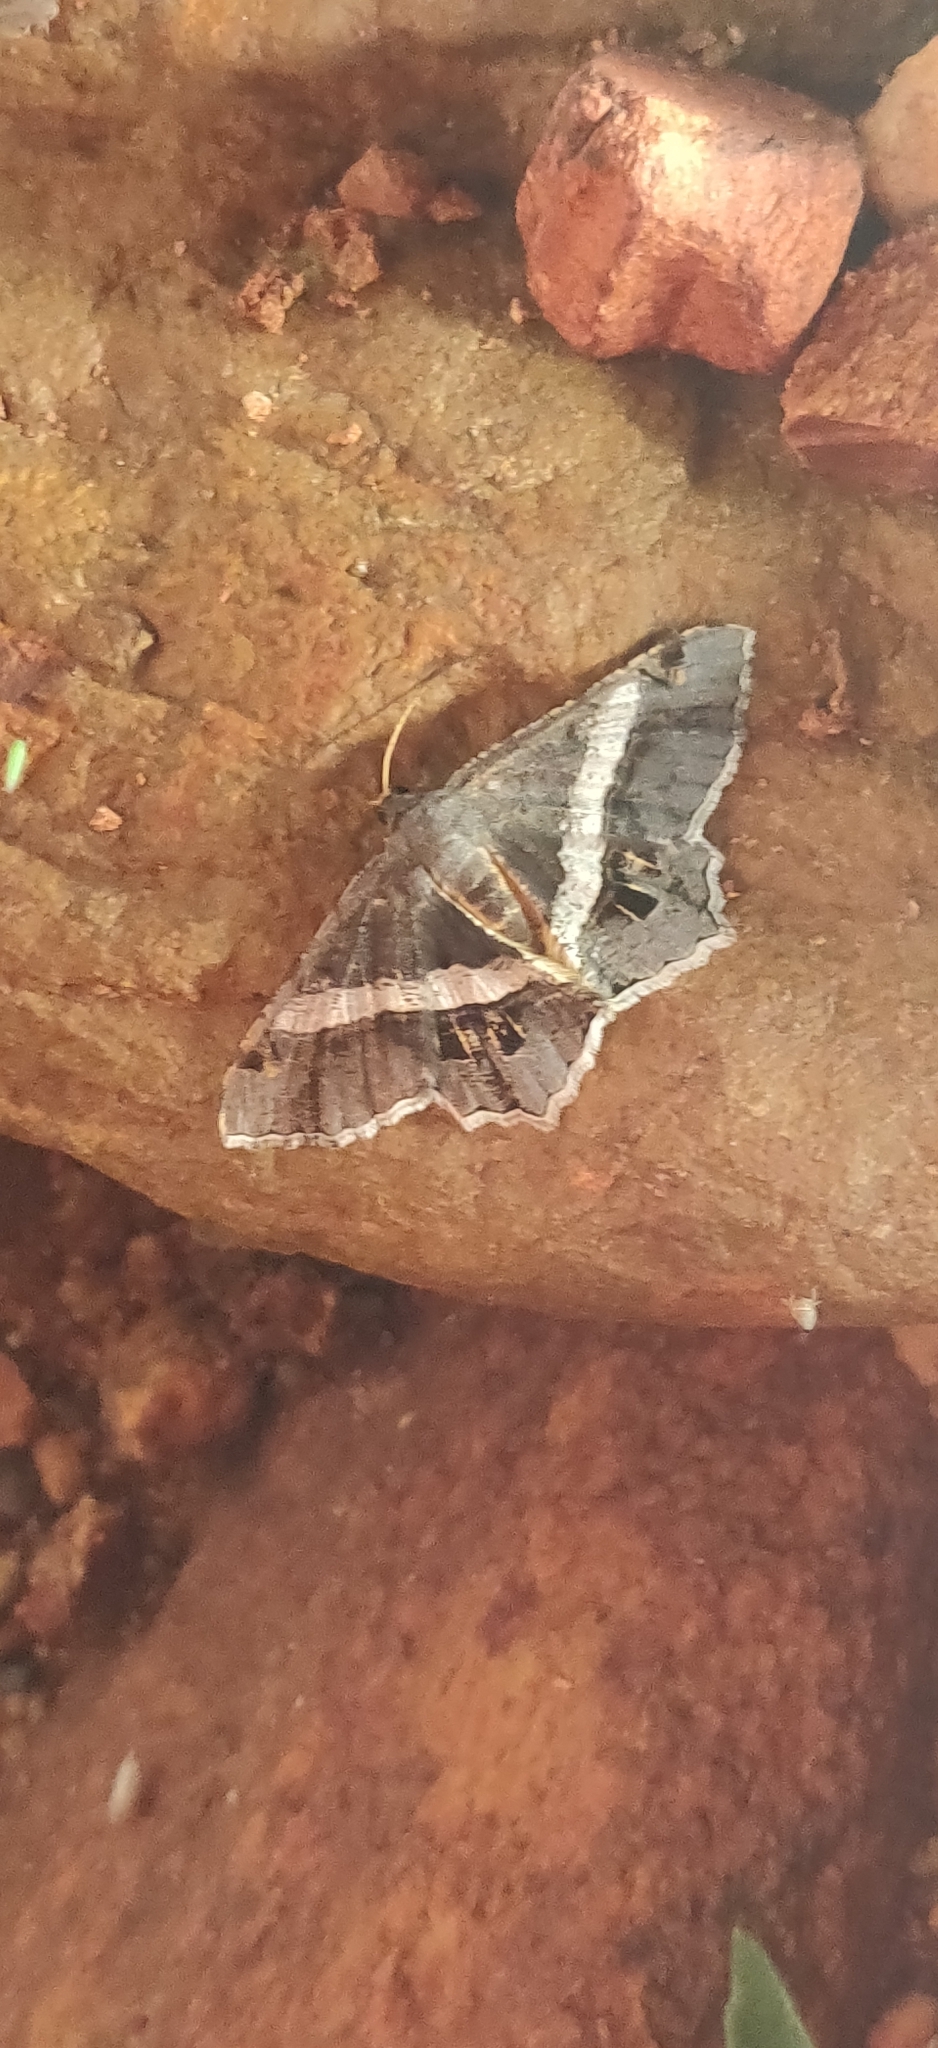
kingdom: Animalia
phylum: Arthropoda
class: Insecta
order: Lepidoptera
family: Geometridae
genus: Chiasmia
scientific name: Chiasmia eleonora
